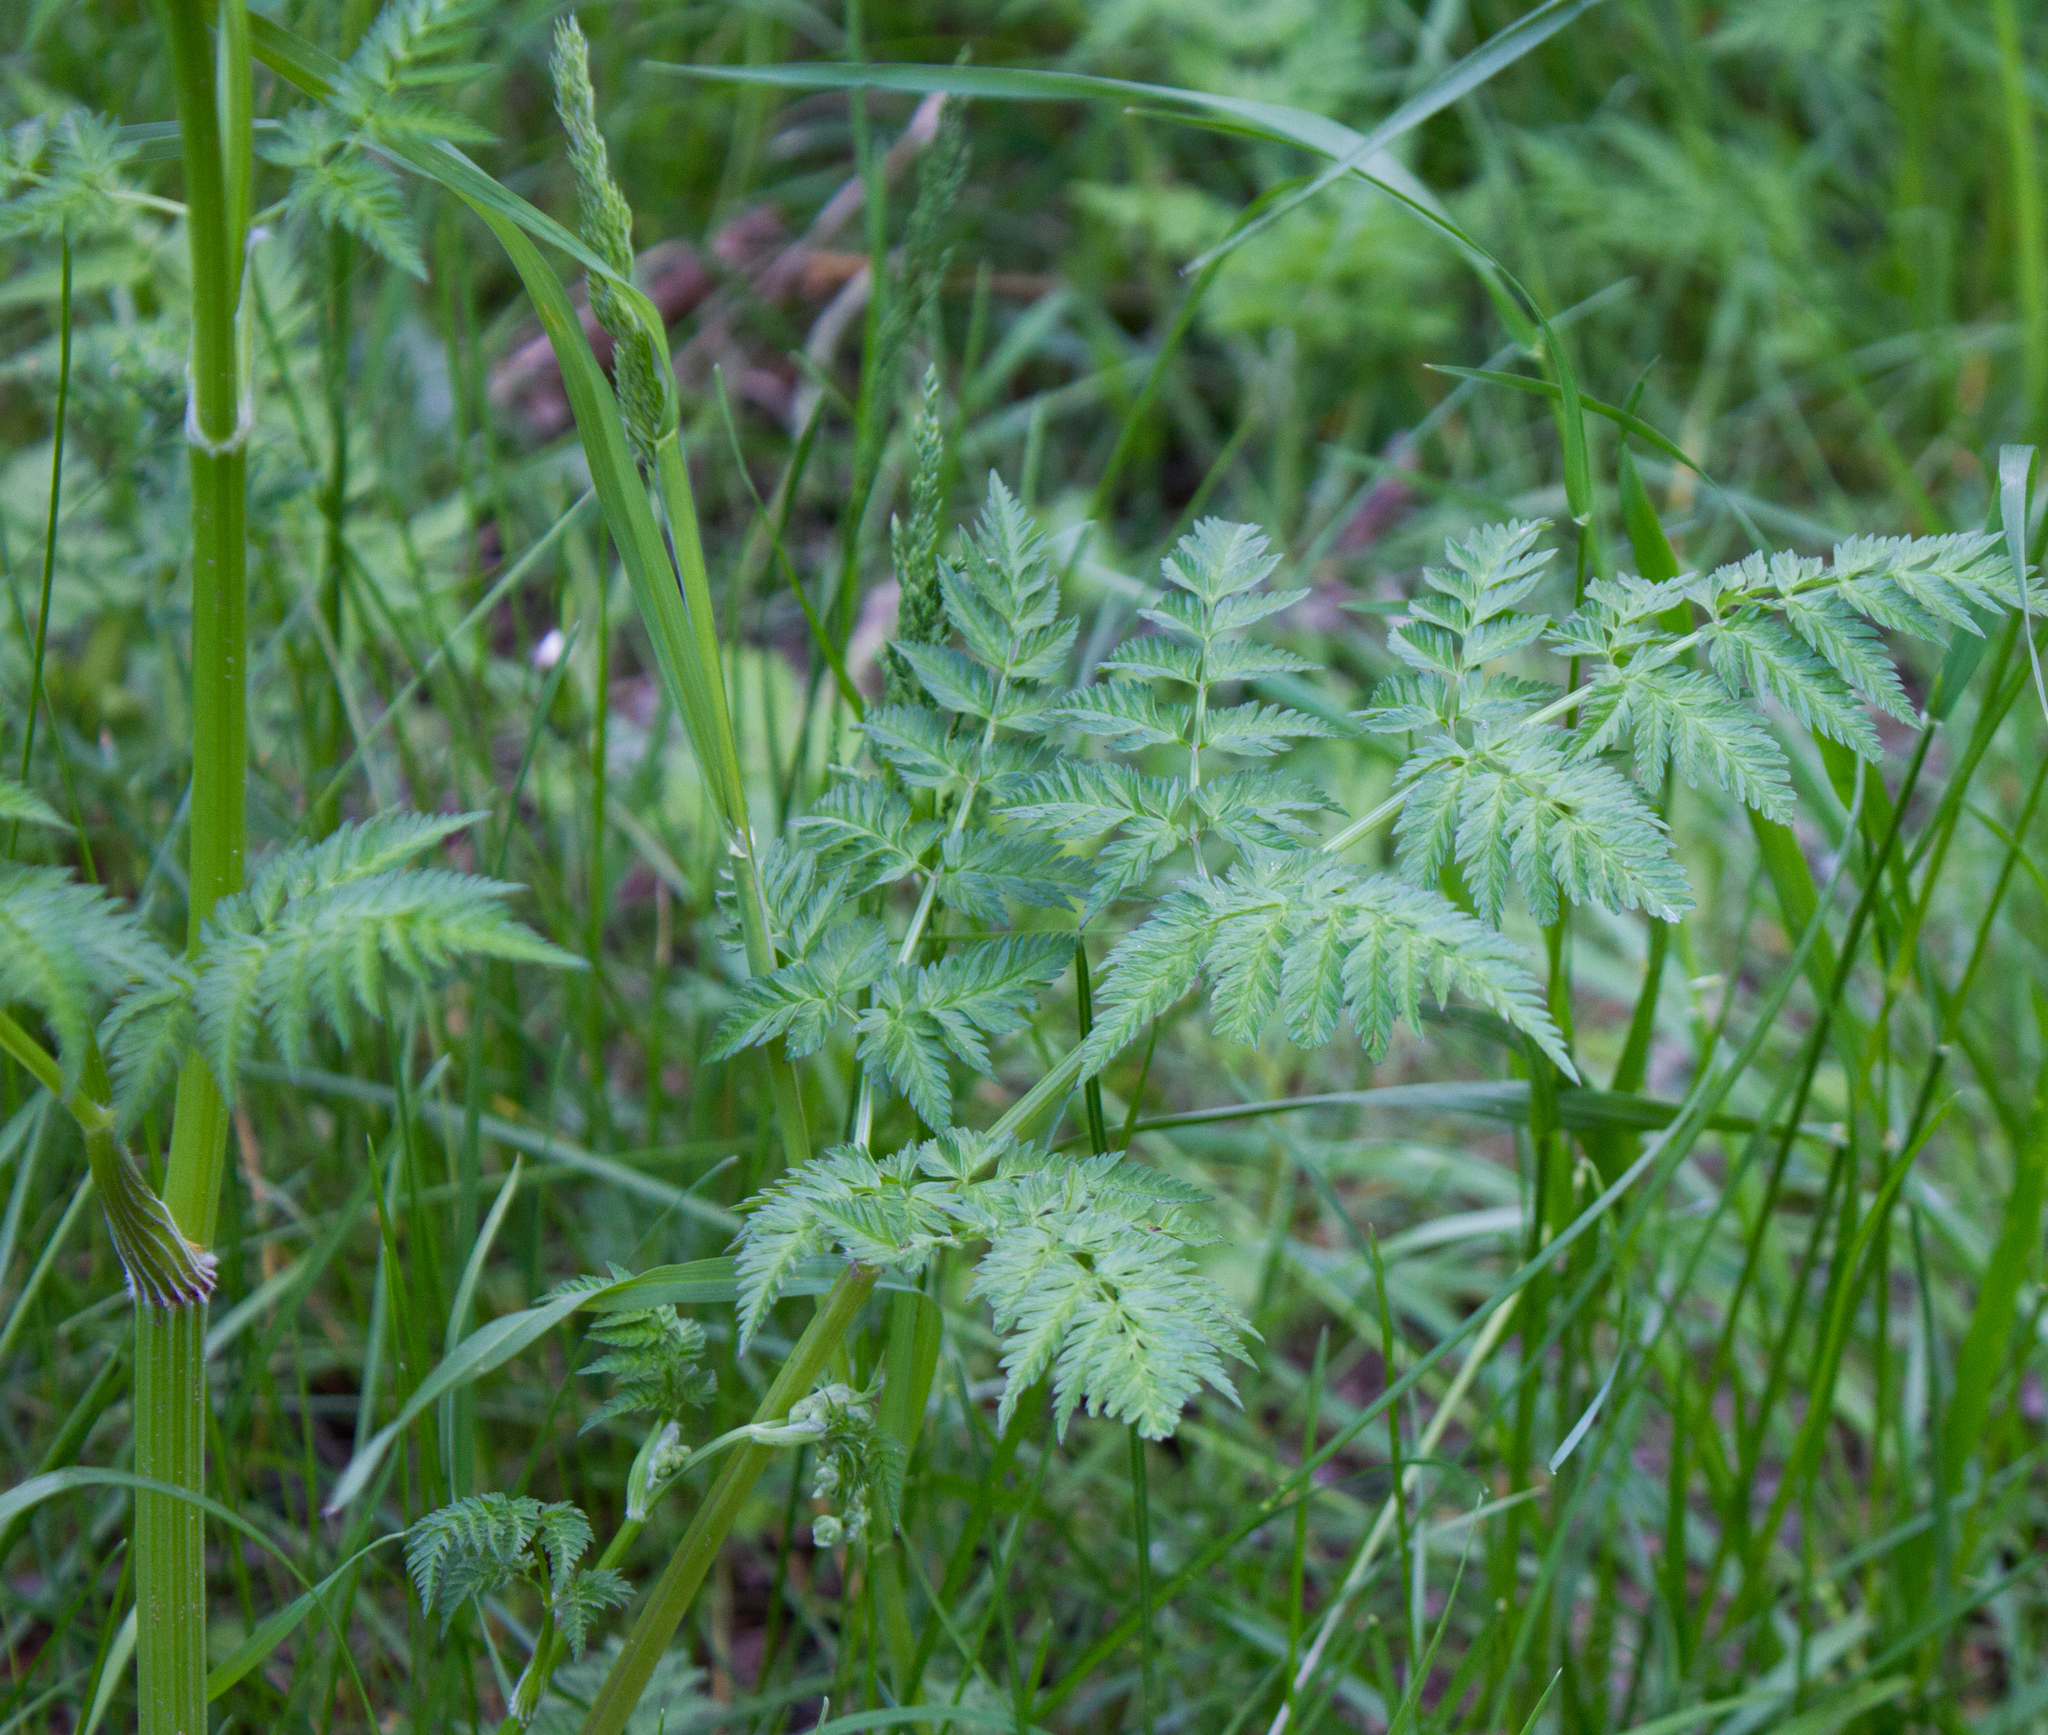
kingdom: Plantae
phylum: Tracheophyta
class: Magnoliopsida
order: Apiales
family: Apiaceae
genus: Anthriscus
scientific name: Anthriscus sylvestris
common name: Cow parsley
